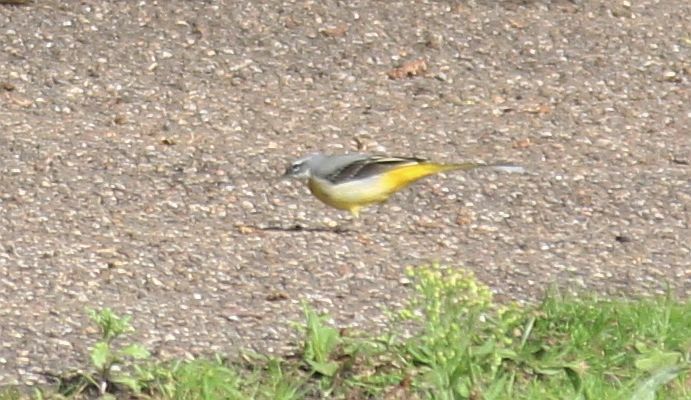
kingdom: Animalia
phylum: Chordata
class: Aves
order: Passeriformes
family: Motacillidae
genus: Motacilla
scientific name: Motacilla cinerea
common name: Grey wagtail
